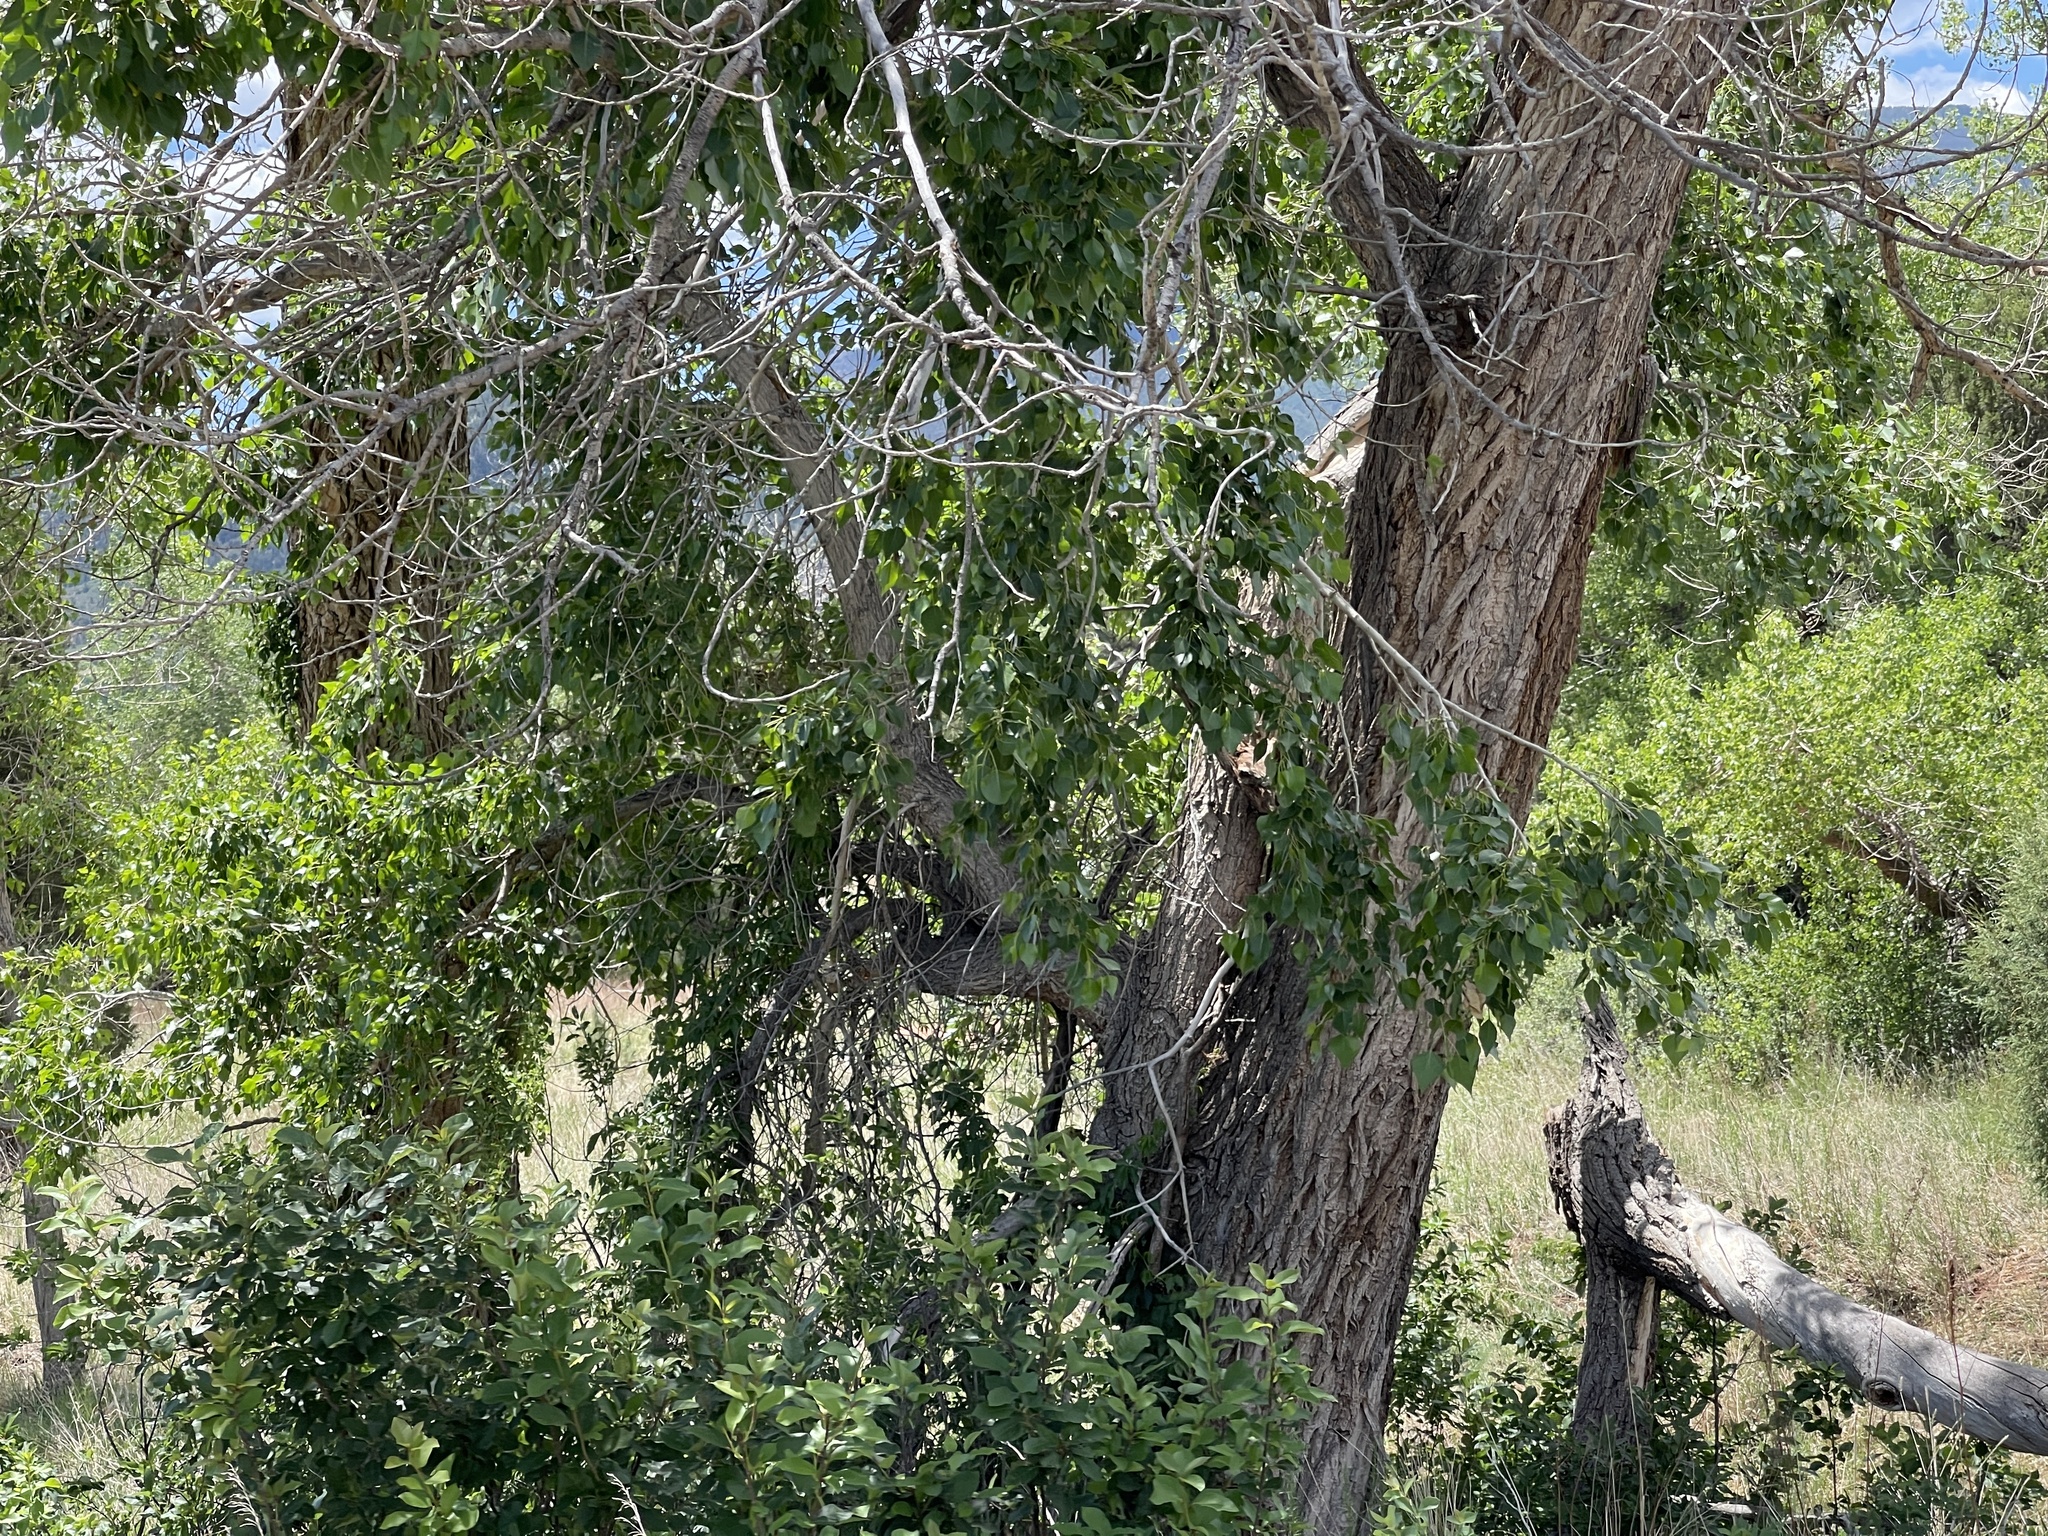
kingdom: Plantae
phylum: Tracheophyta
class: Magnoliopsida
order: Malpighiales
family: Salicaceae
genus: Populus
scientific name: Populus acuminata
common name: Lance-leaved cottonwood
